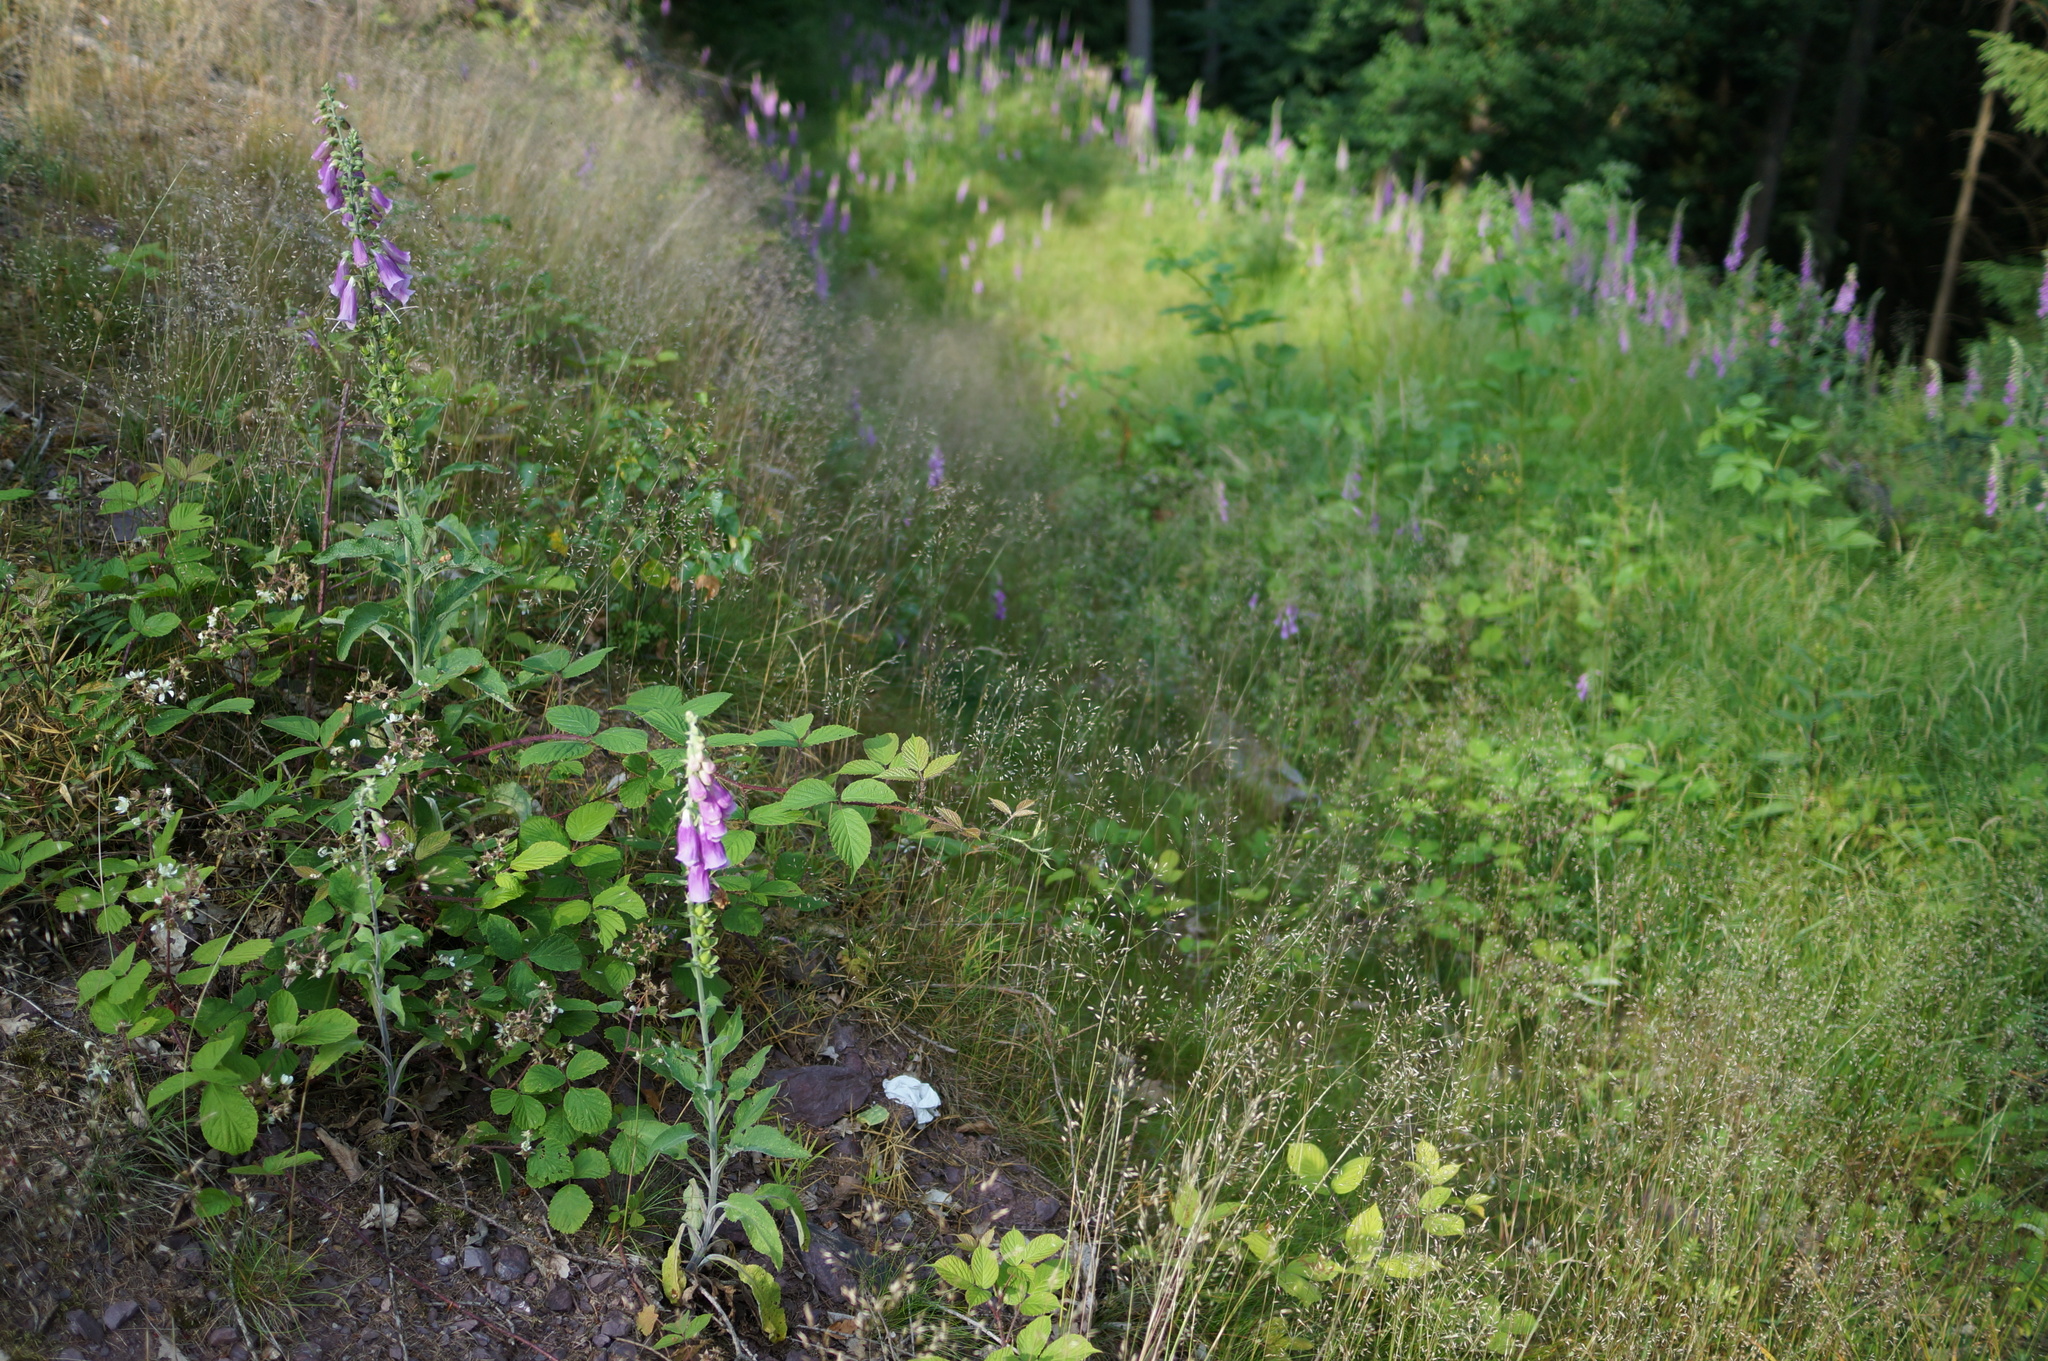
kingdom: Plantae
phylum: Tracheophyta
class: Magnoliopsida
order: Lamiales
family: Plantaginaceae
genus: Digitalis
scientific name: Digitalis purpurea
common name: Foxglove
